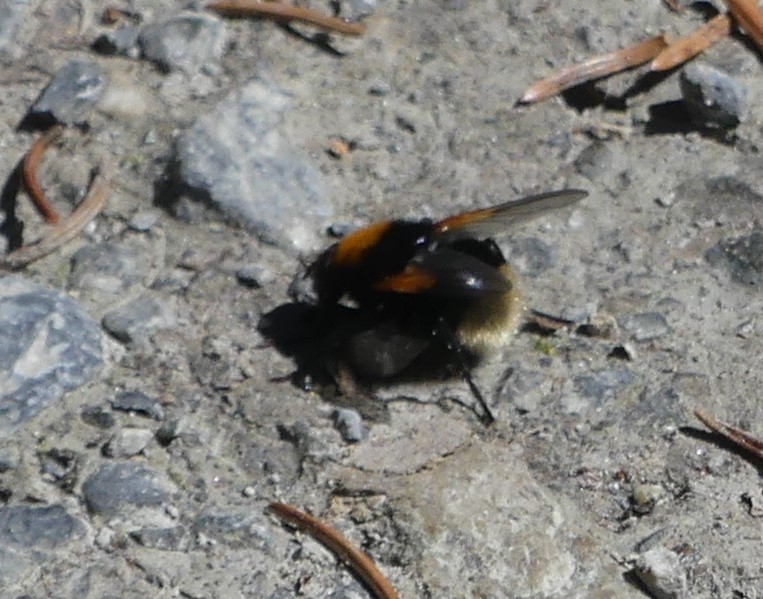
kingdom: Animalia
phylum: Arthropoda
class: Insecta
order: Diptera
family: Muscidae
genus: Mesembrina
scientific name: Mesembrina mystacea
